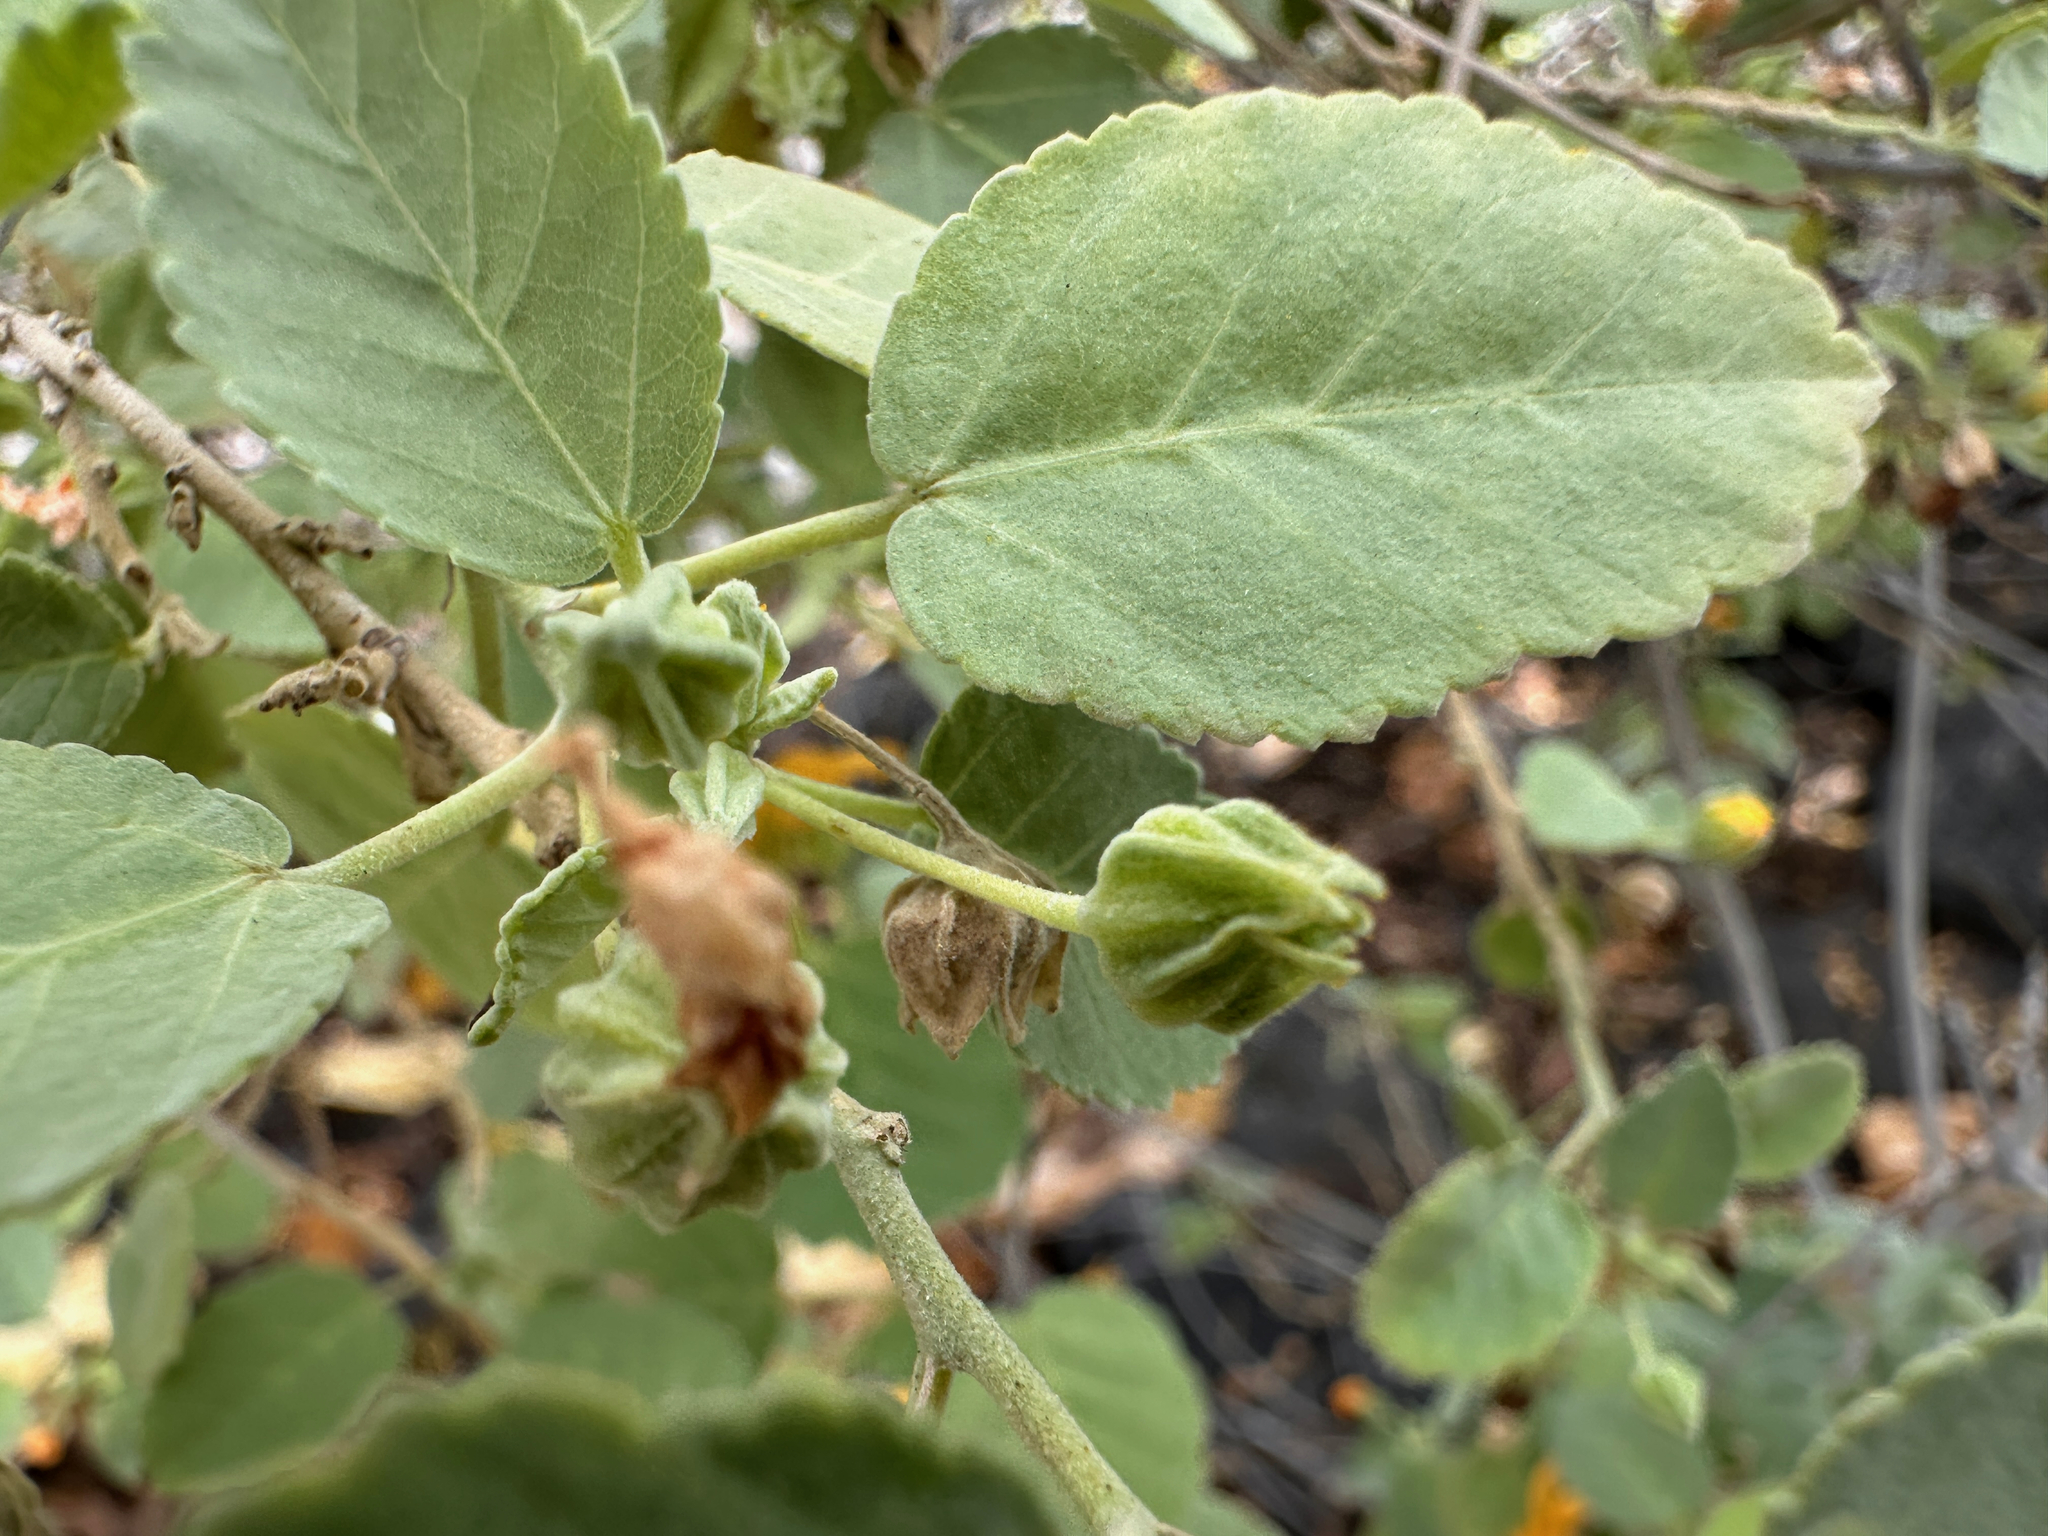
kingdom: Plantae
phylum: Tracheophyta
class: Magnoliopsida
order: Malvales
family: Malvaceae
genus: Sida
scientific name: Sida fallax
